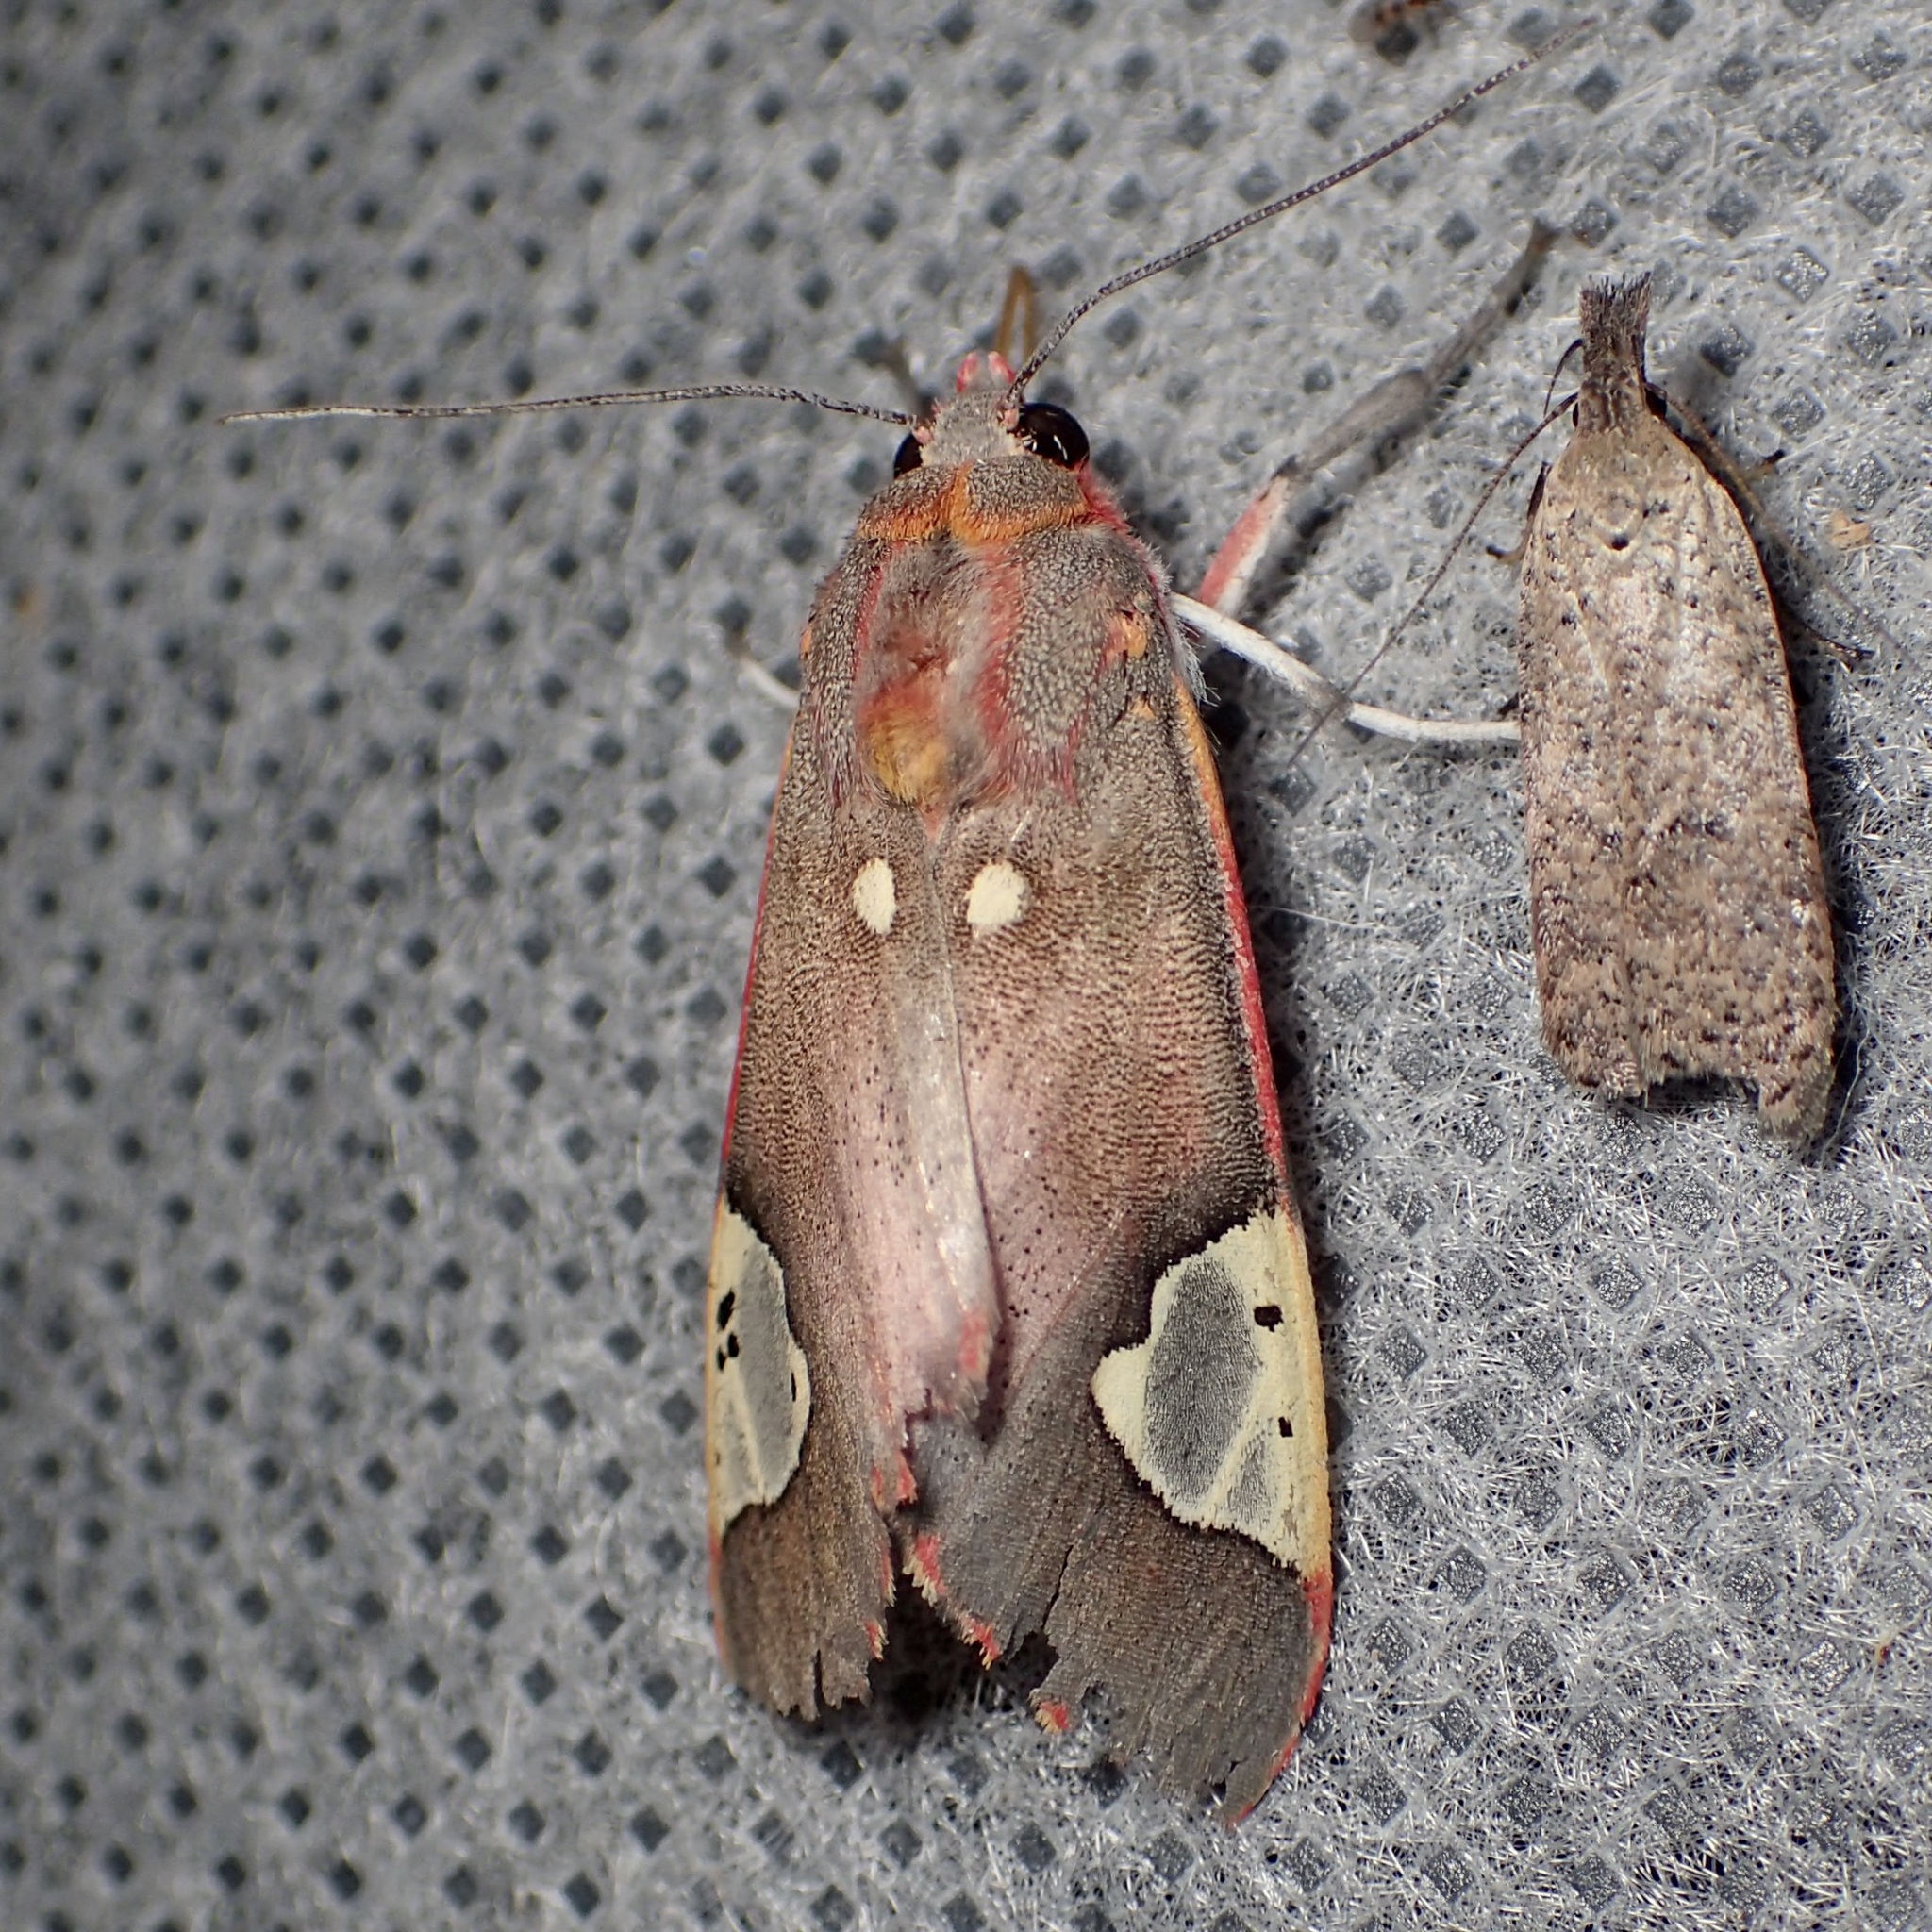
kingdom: Animalia
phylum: Arthropoda
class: Insecta
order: Lepidoptera
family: Erebidae
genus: Bertholdia
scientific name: Bertholdia trigona
